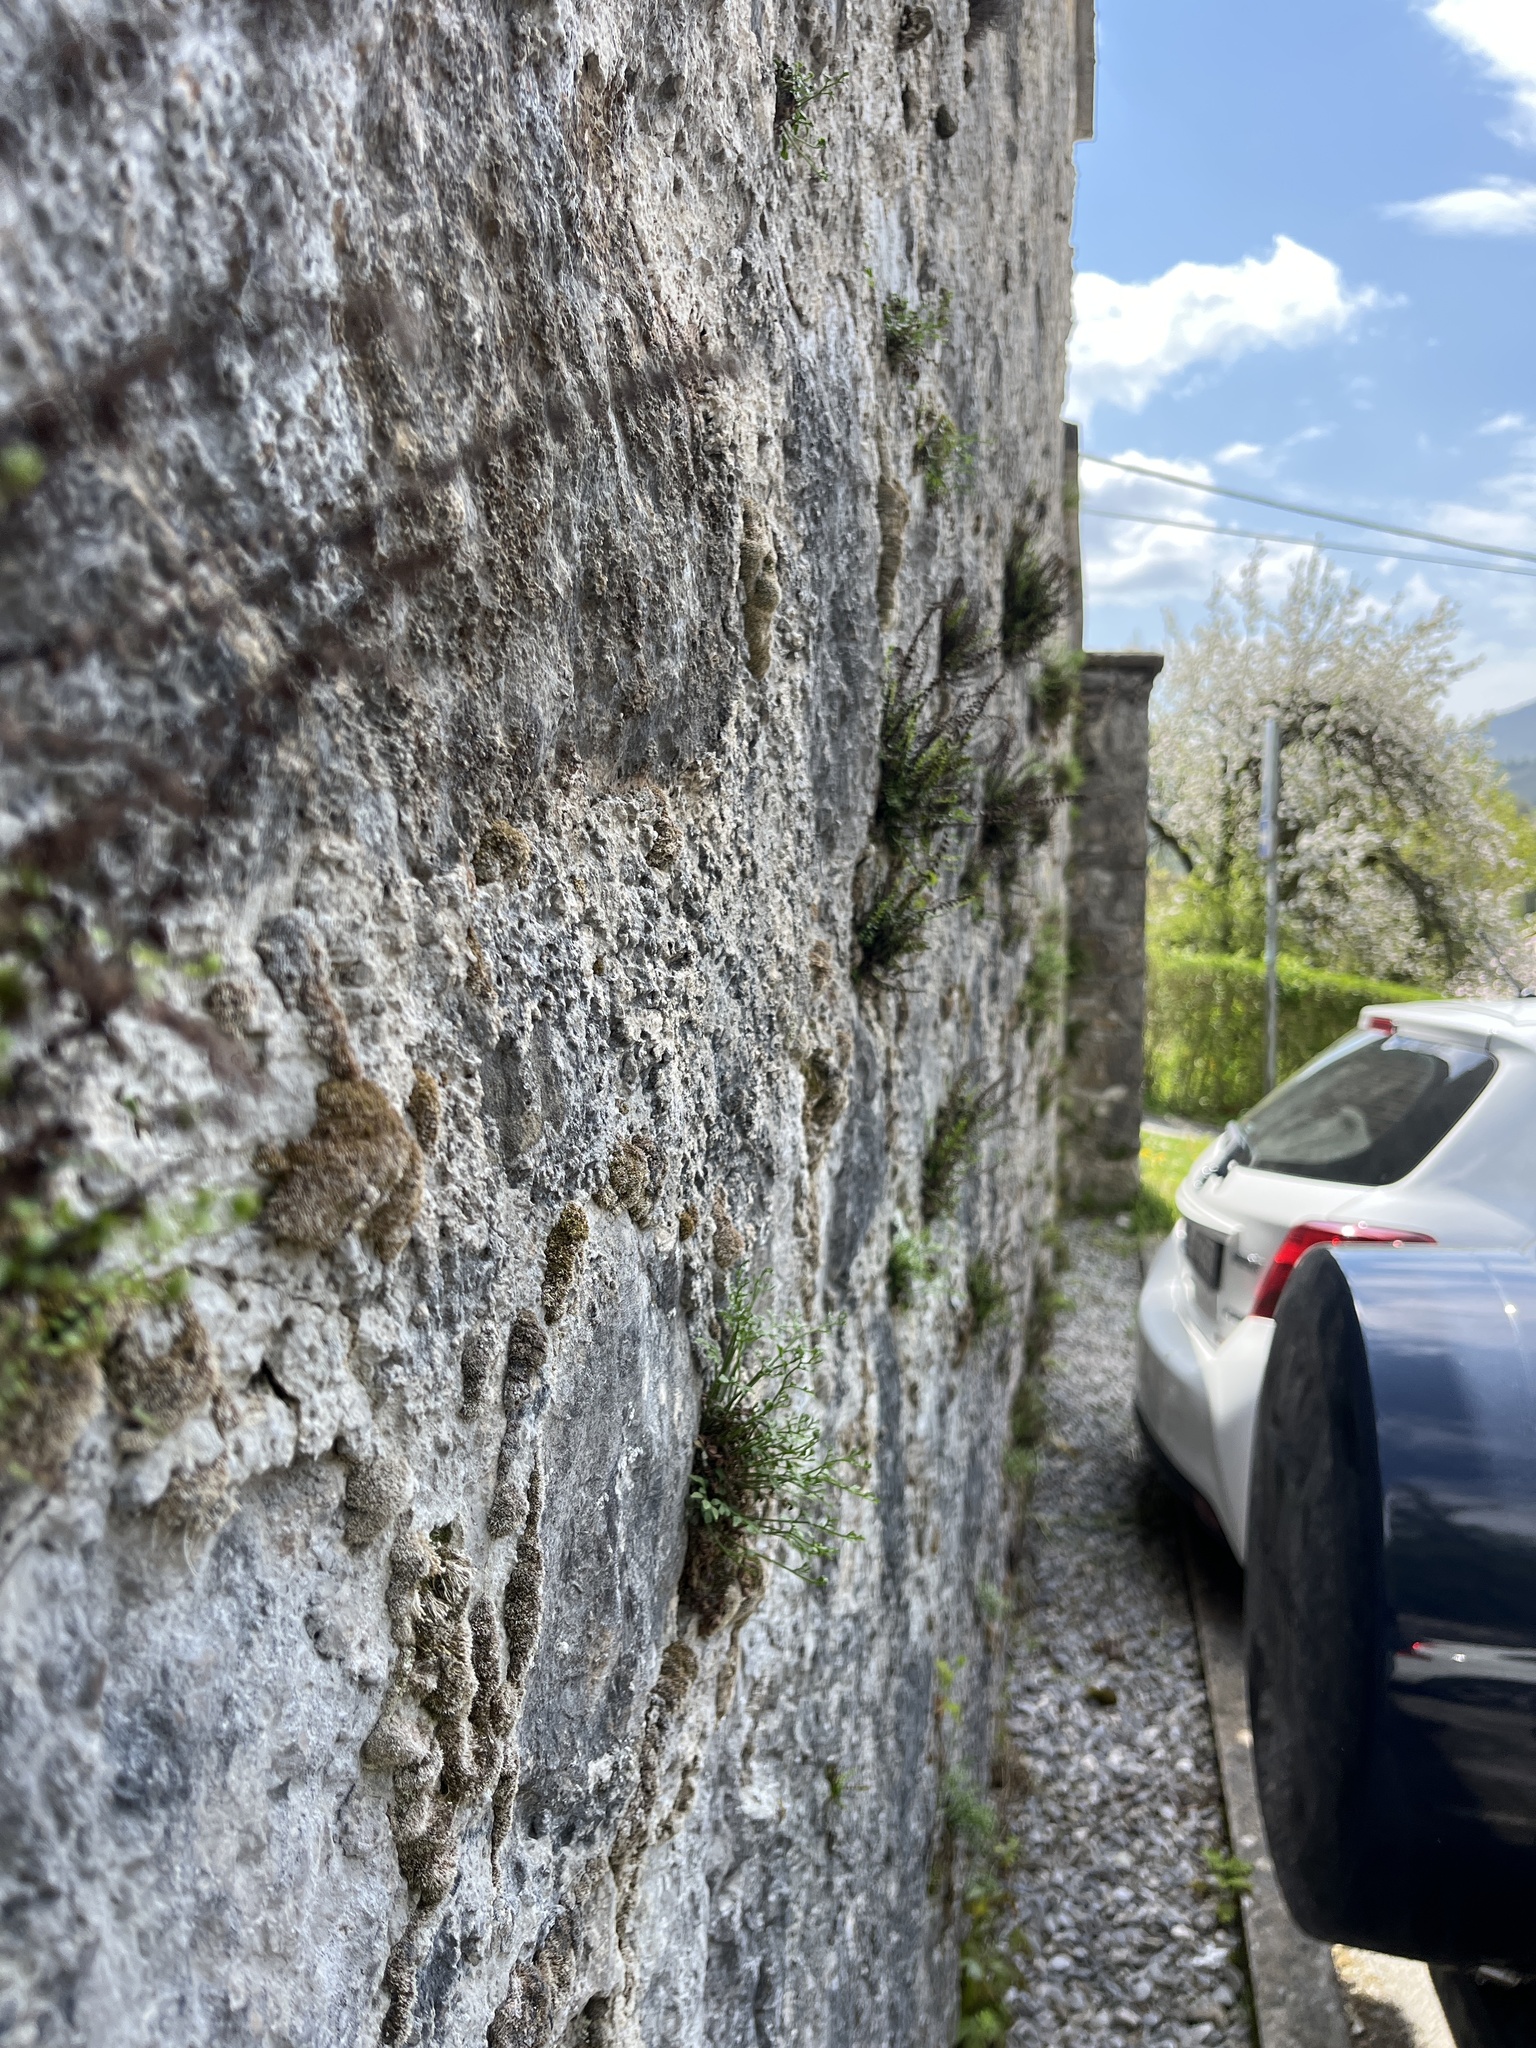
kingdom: Plantae
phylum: Tracheophyta
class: Polypodiopsida
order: Polypodiales
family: Aspleniaceae
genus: Asplenium
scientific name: Asplenium trichomanes
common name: Maidenhair spleenwort
